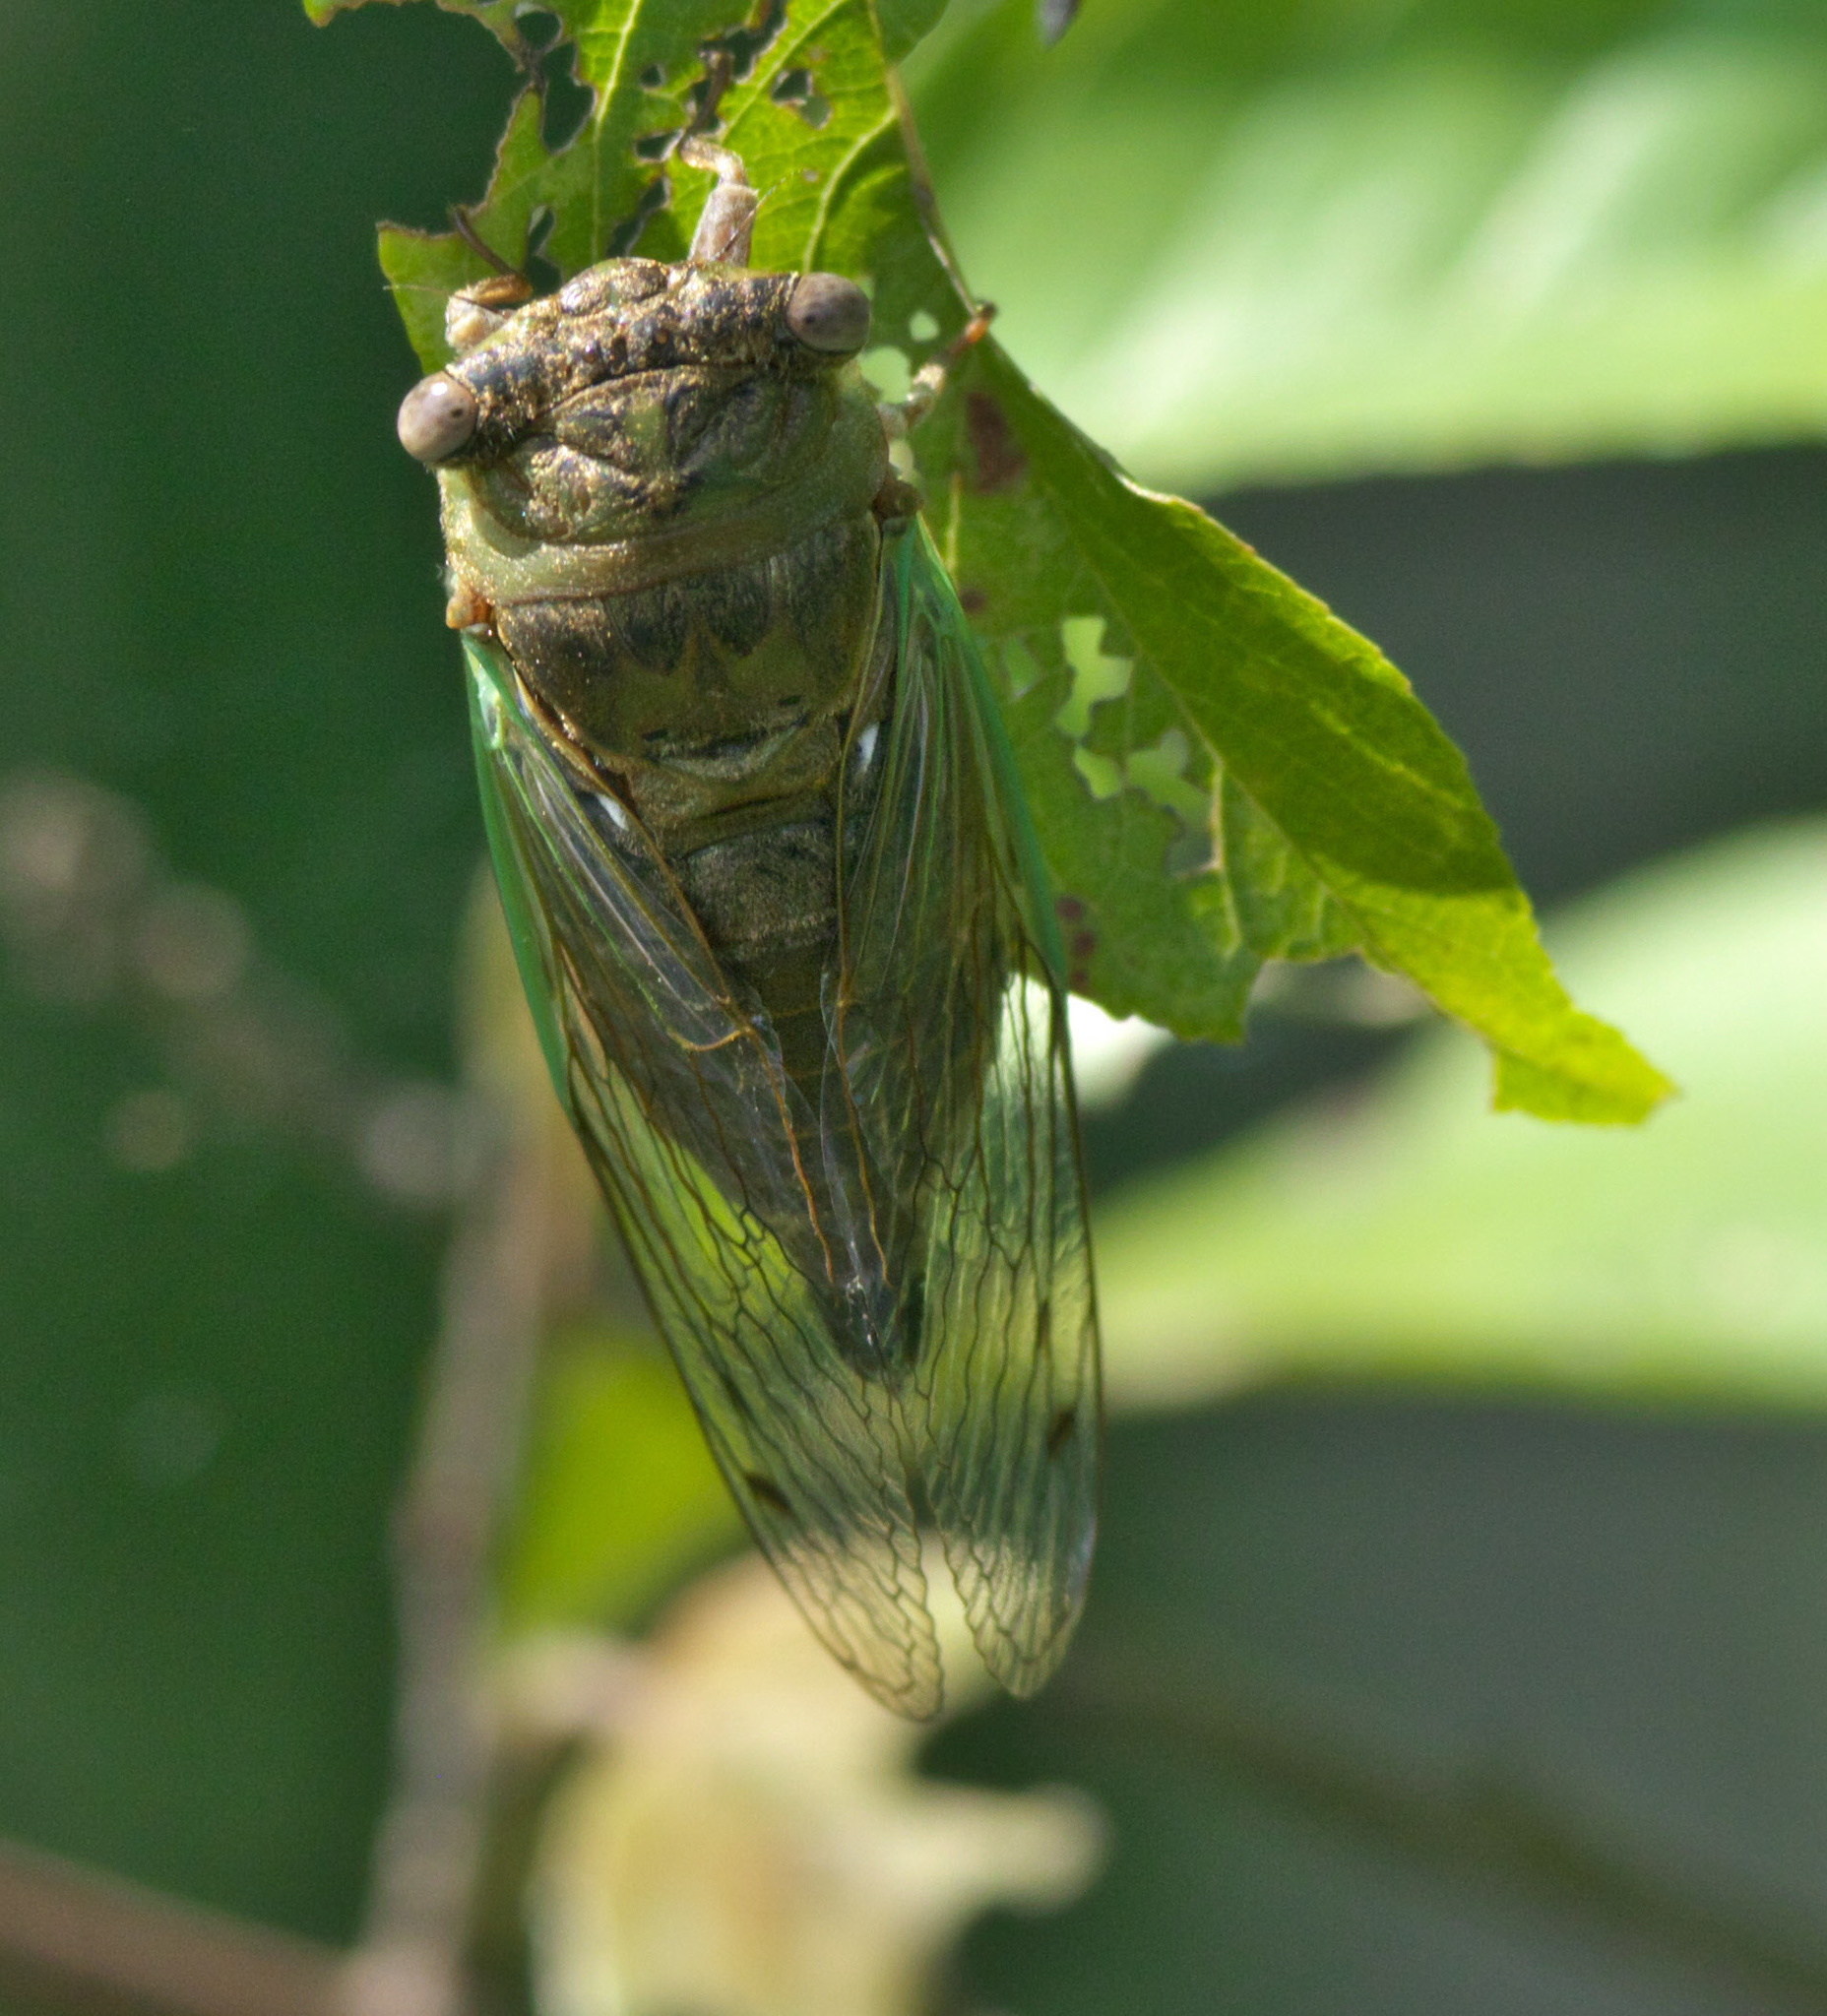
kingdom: Animalia
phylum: Arthropoda
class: Insecta
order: Hemiptera
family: Cicadidae
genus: Neotibicen
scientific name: Neotibicen aurifer
